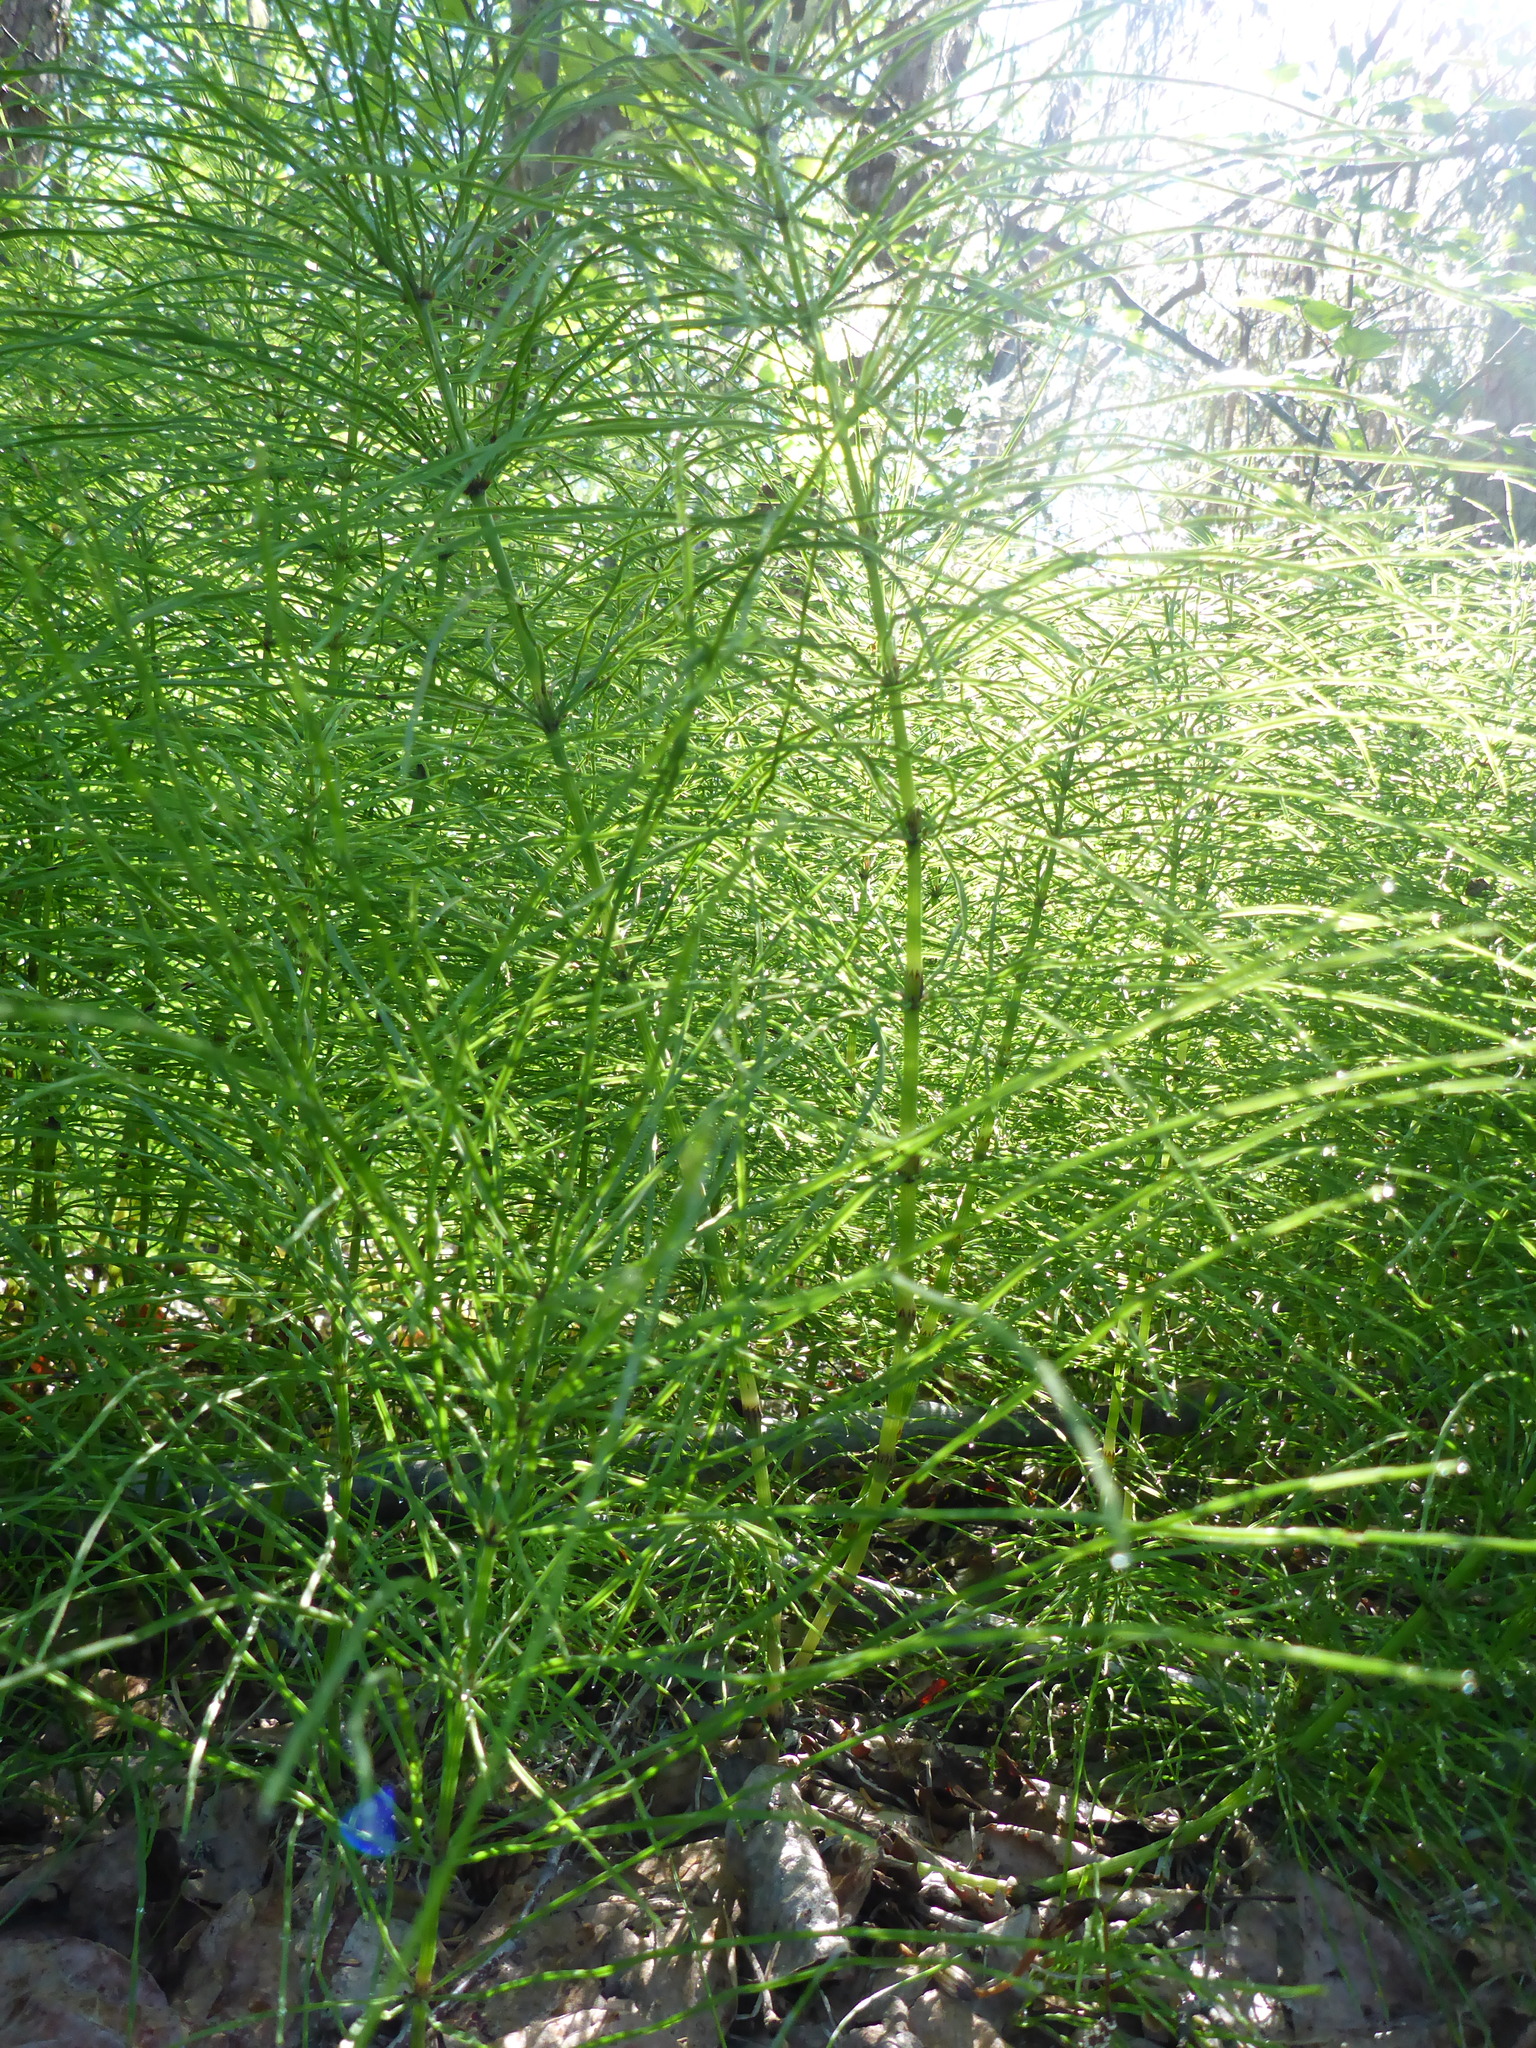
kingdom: Plantae
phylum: Tracheophyta
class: Polypodiopsida
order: Equisetales
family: Equisetaceae
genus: Equisetum
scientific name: Equisetum arvense
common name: Field horsetail
